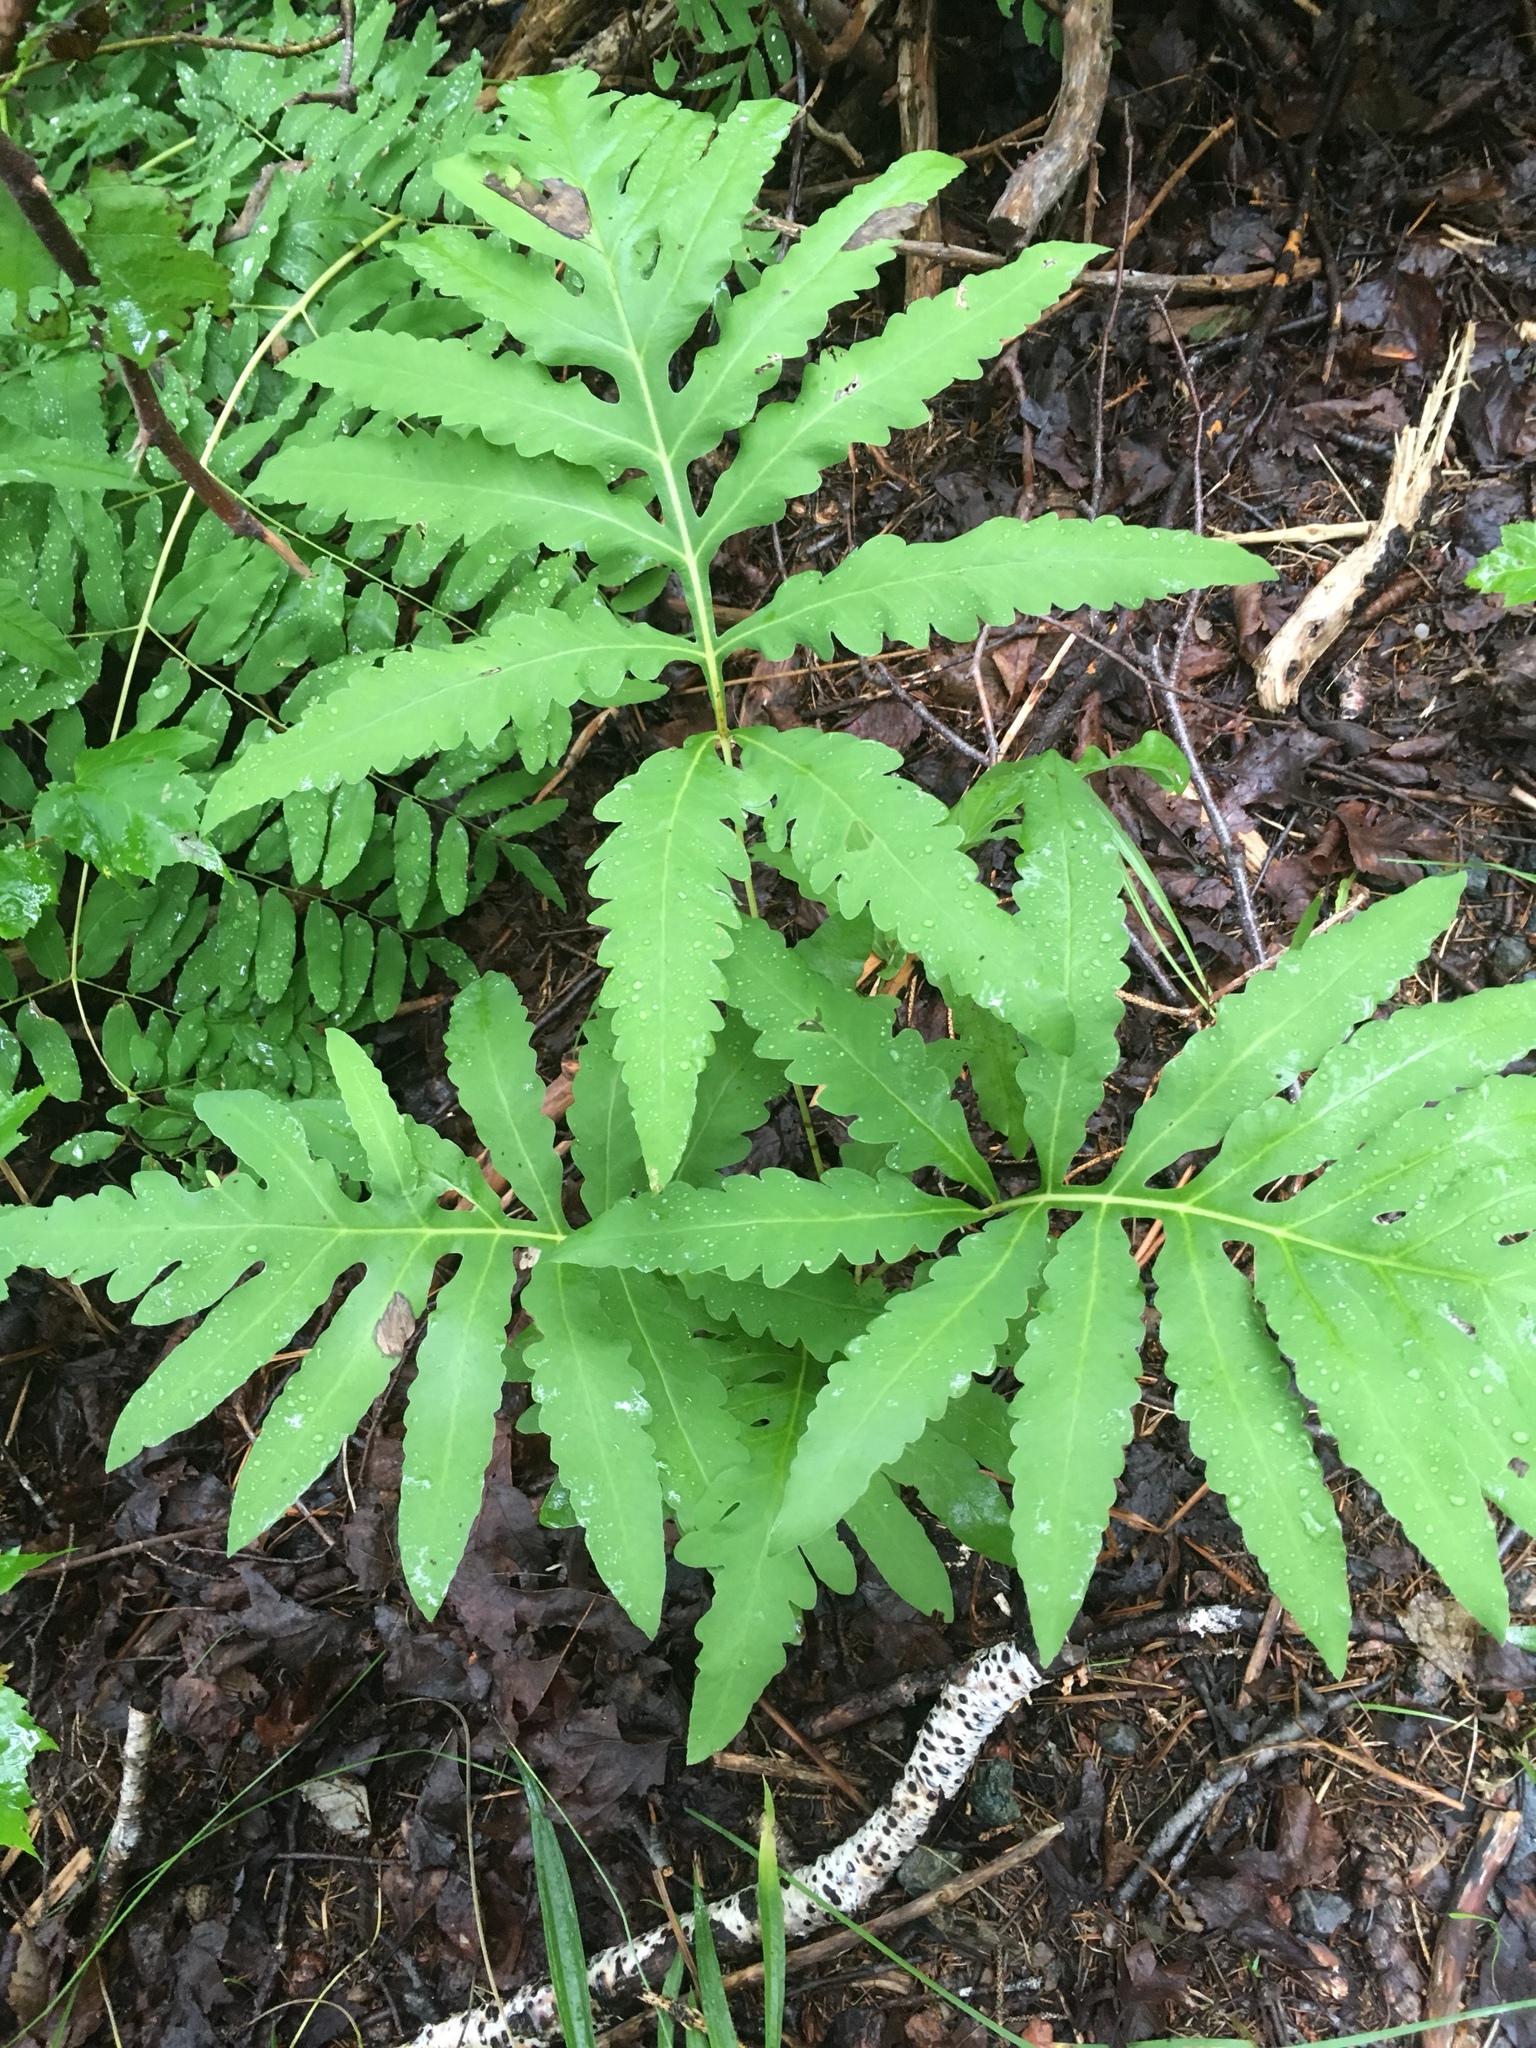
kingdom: Plantae
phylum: Tracheophyta
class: Polypodiopsida
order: Polypodiales
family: Onocleaceae
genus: Onoclea
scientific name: Onoclea sensibilis
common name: Sensitive fern
